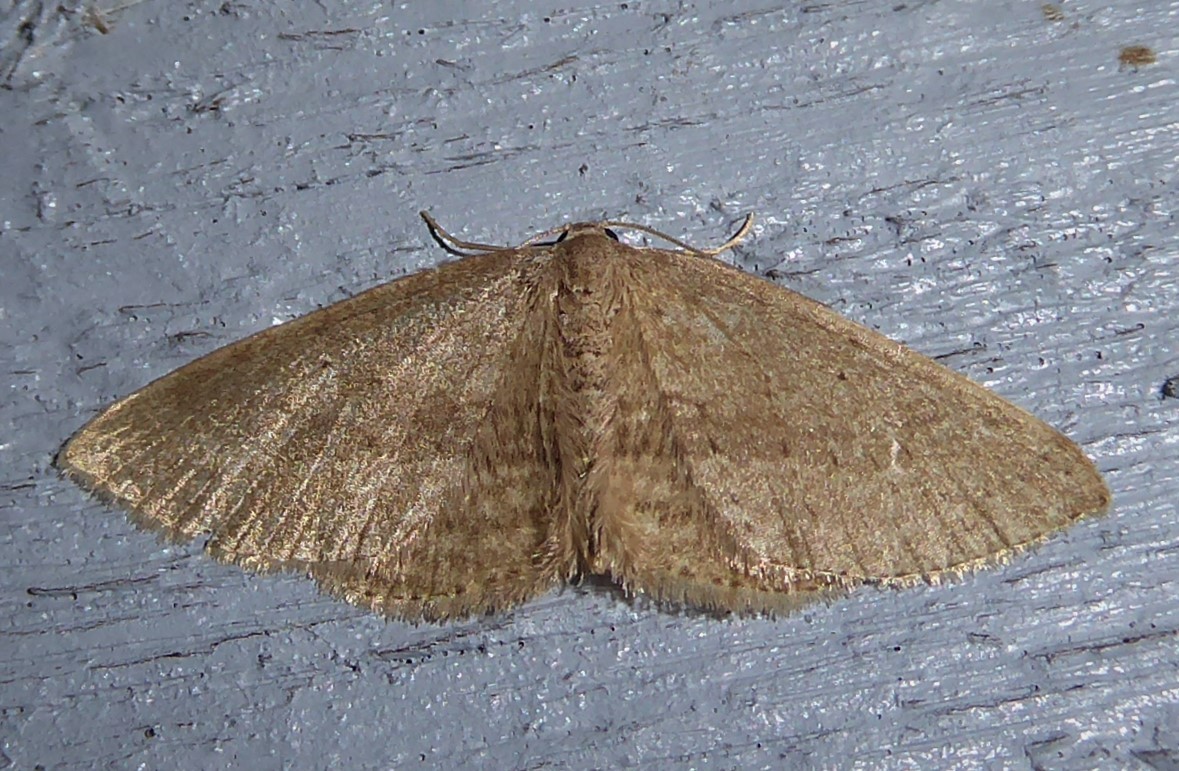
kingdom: Animalia
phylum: Arthropoda
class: Insecta
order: Lepidoptera
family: Geometridae
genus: Poecilasthena
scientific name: Poecilasthena schistaria
